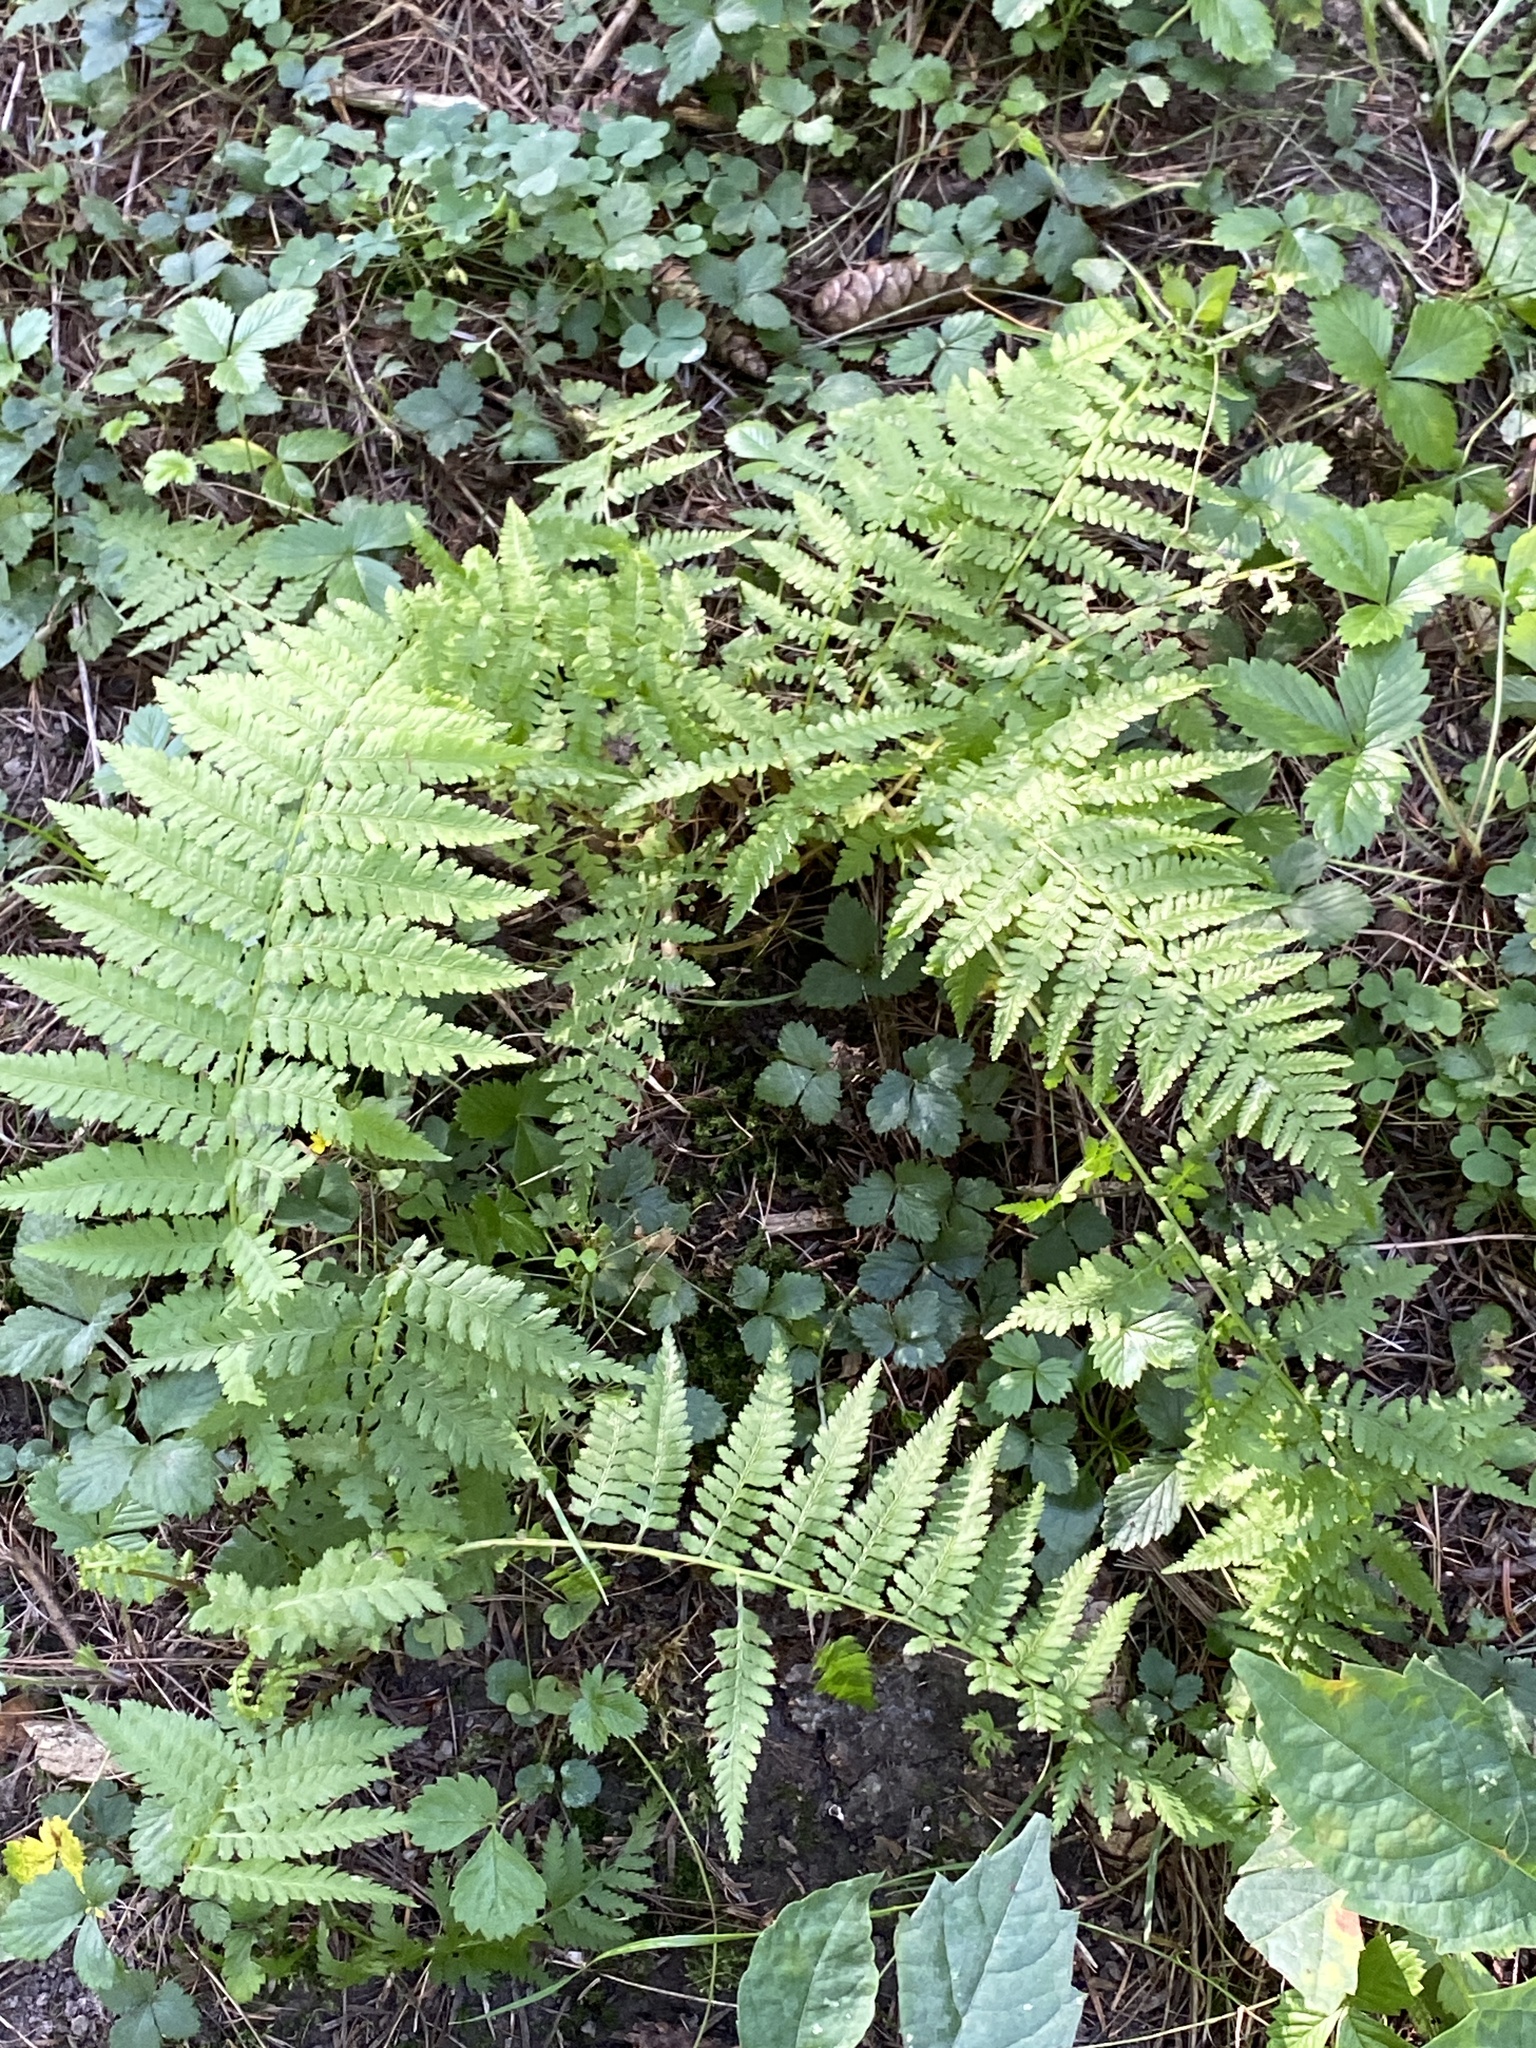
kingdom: Plantae
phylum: Tracheophyta
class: Polypodiopsida
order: Polypodiales
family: Athyriaceae
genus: Athyrium
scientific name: Athyrium angustum
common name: Northern lady fern
